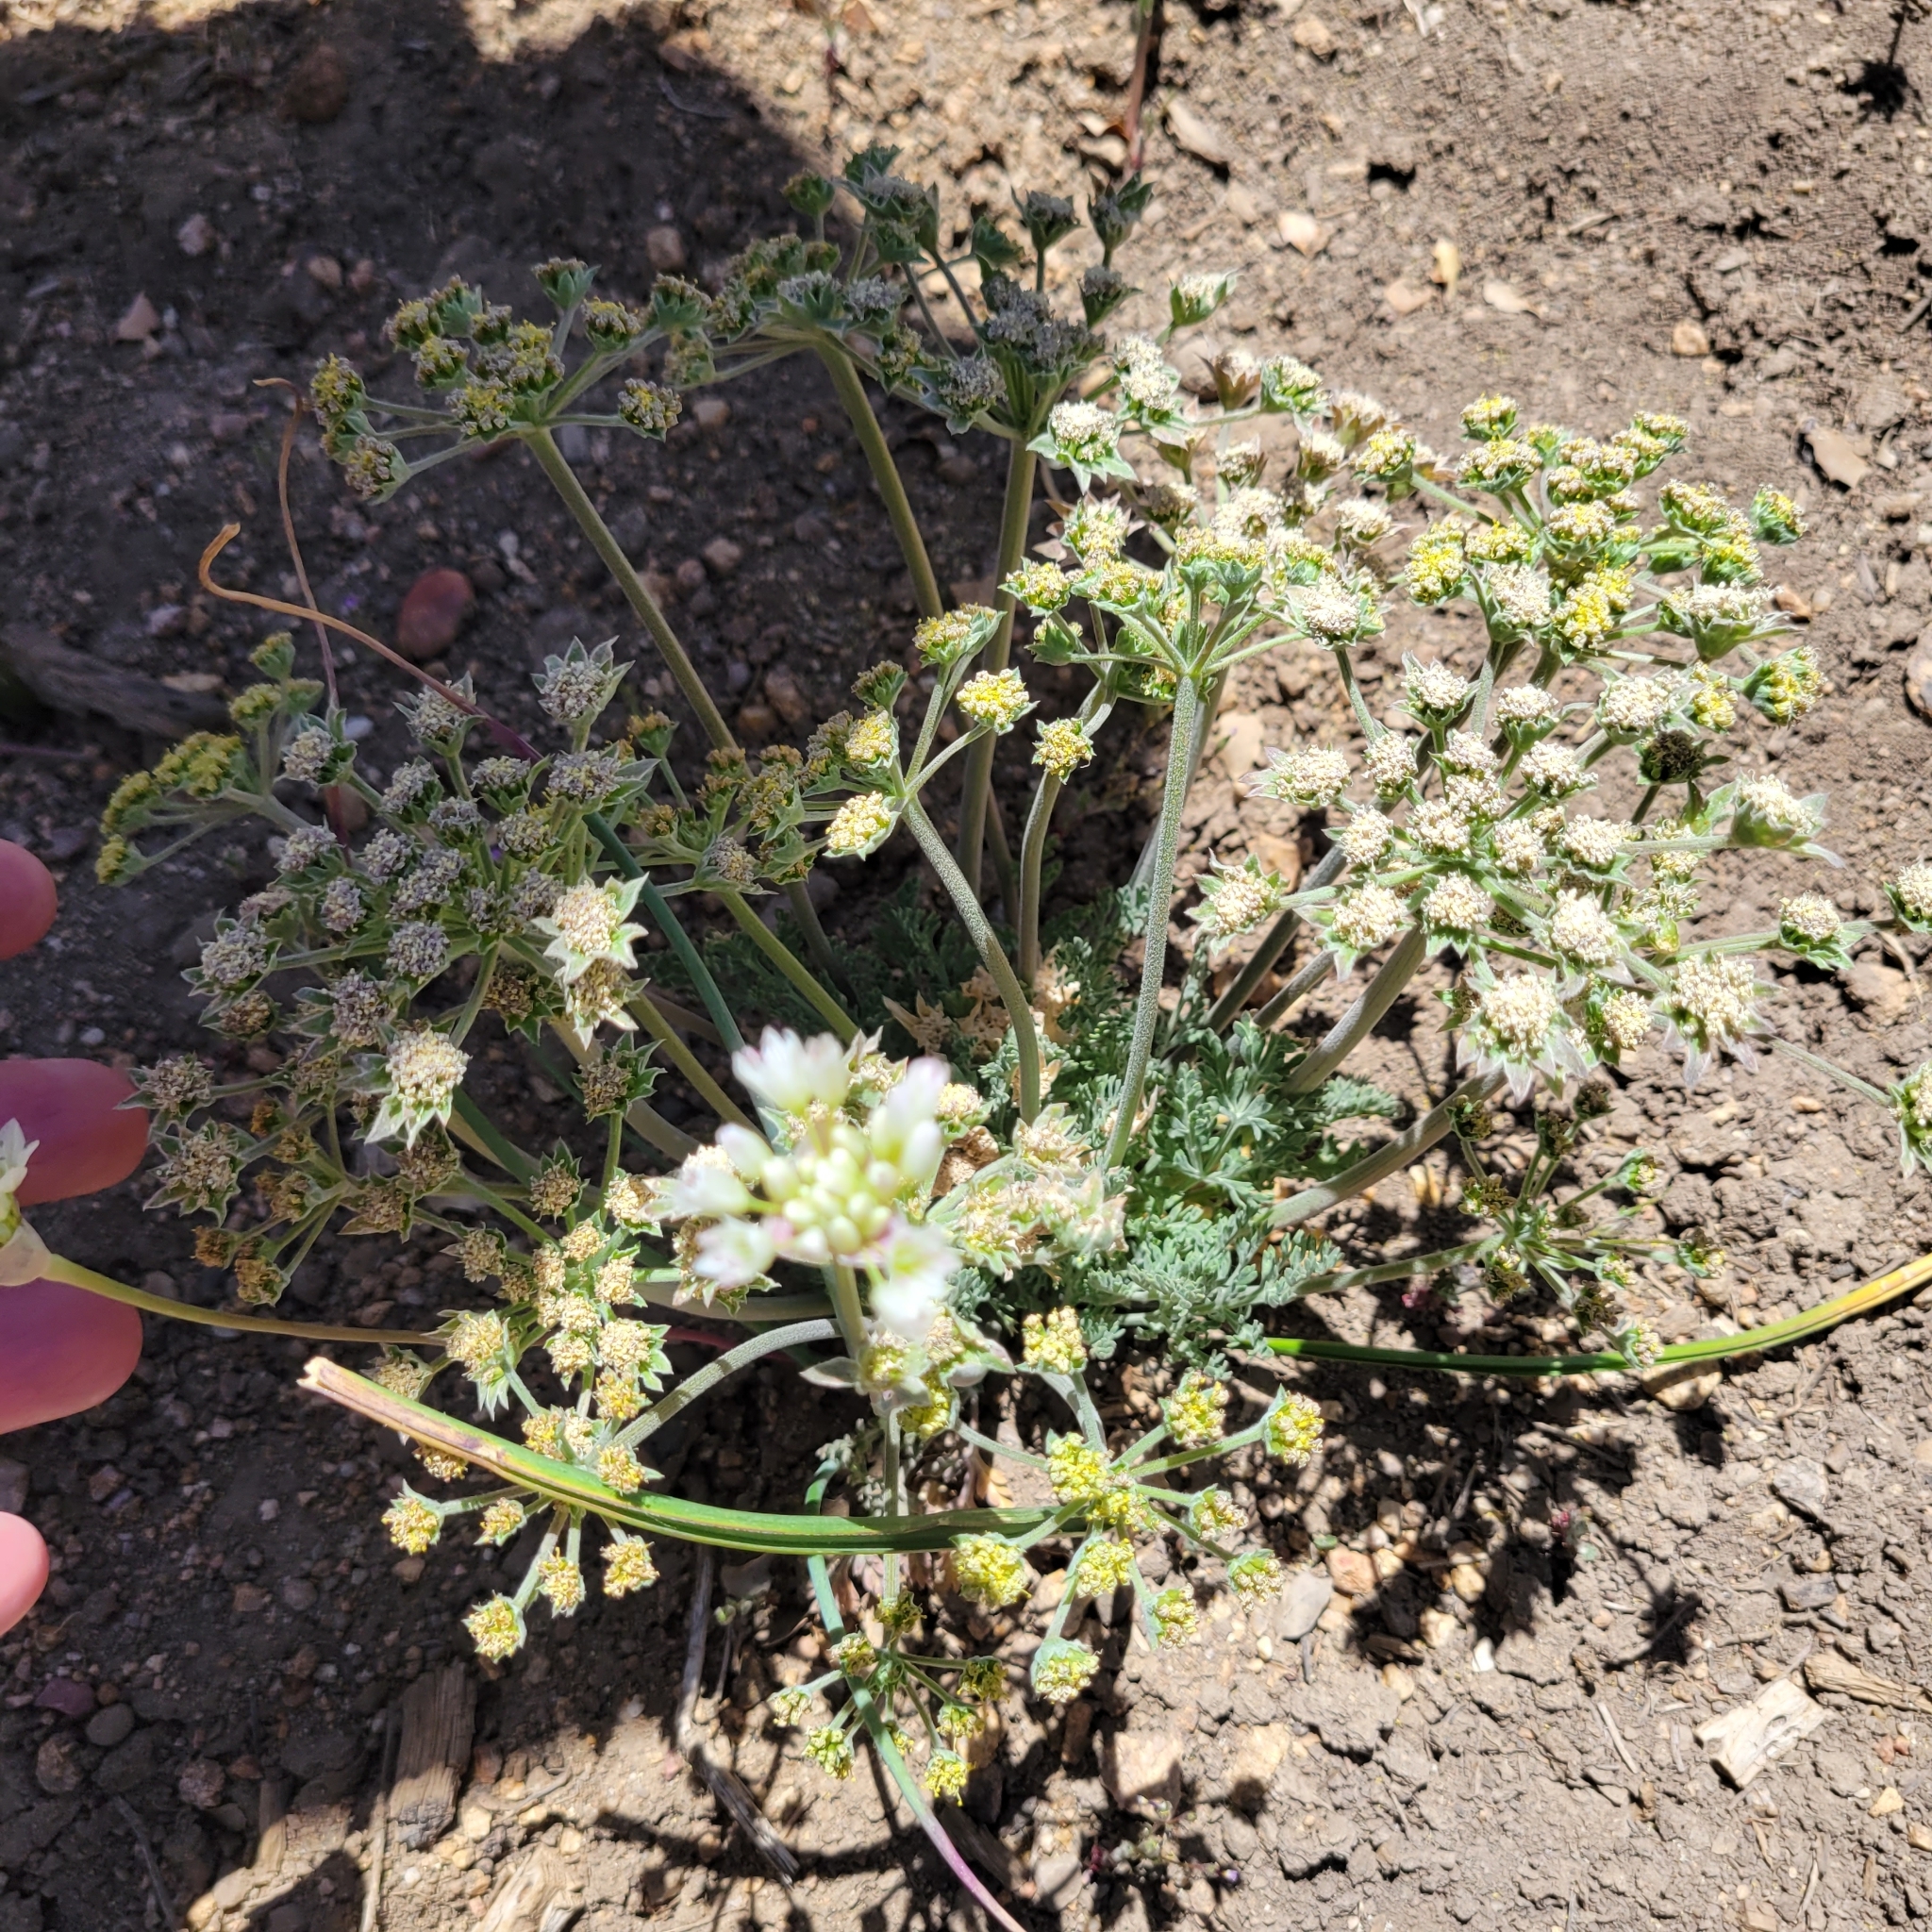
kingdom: Plantae
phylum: Tracheophyta
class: Magnoliopsida
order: Apiales
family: Apiaceae
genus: Lomatium
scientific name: Lomatium dasycarpum
